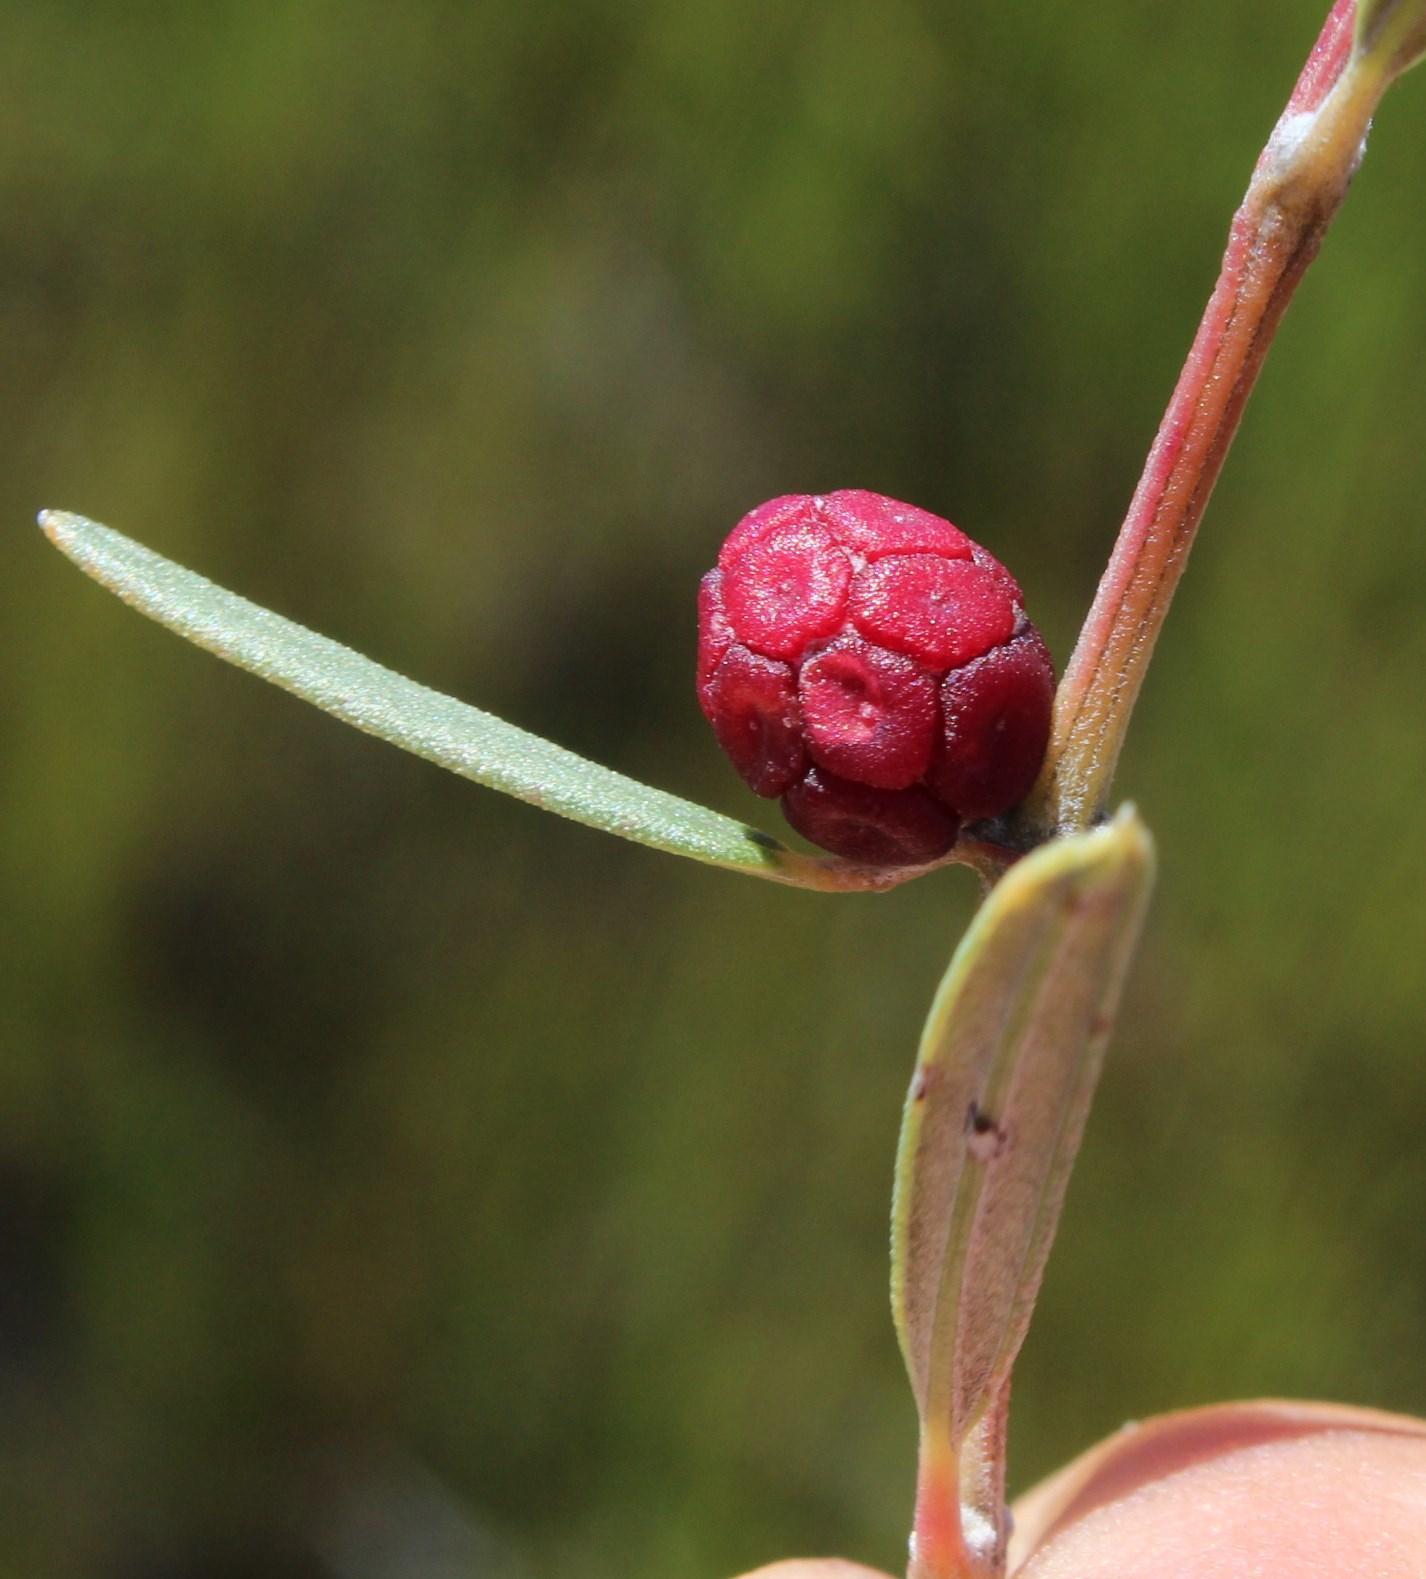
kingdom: Plantae
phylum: Tracheophyta
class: Magnoliopsida
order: Cornales
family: Grubbiaceae
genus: Grubbia
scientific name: Grubbia rosmarinifolia
